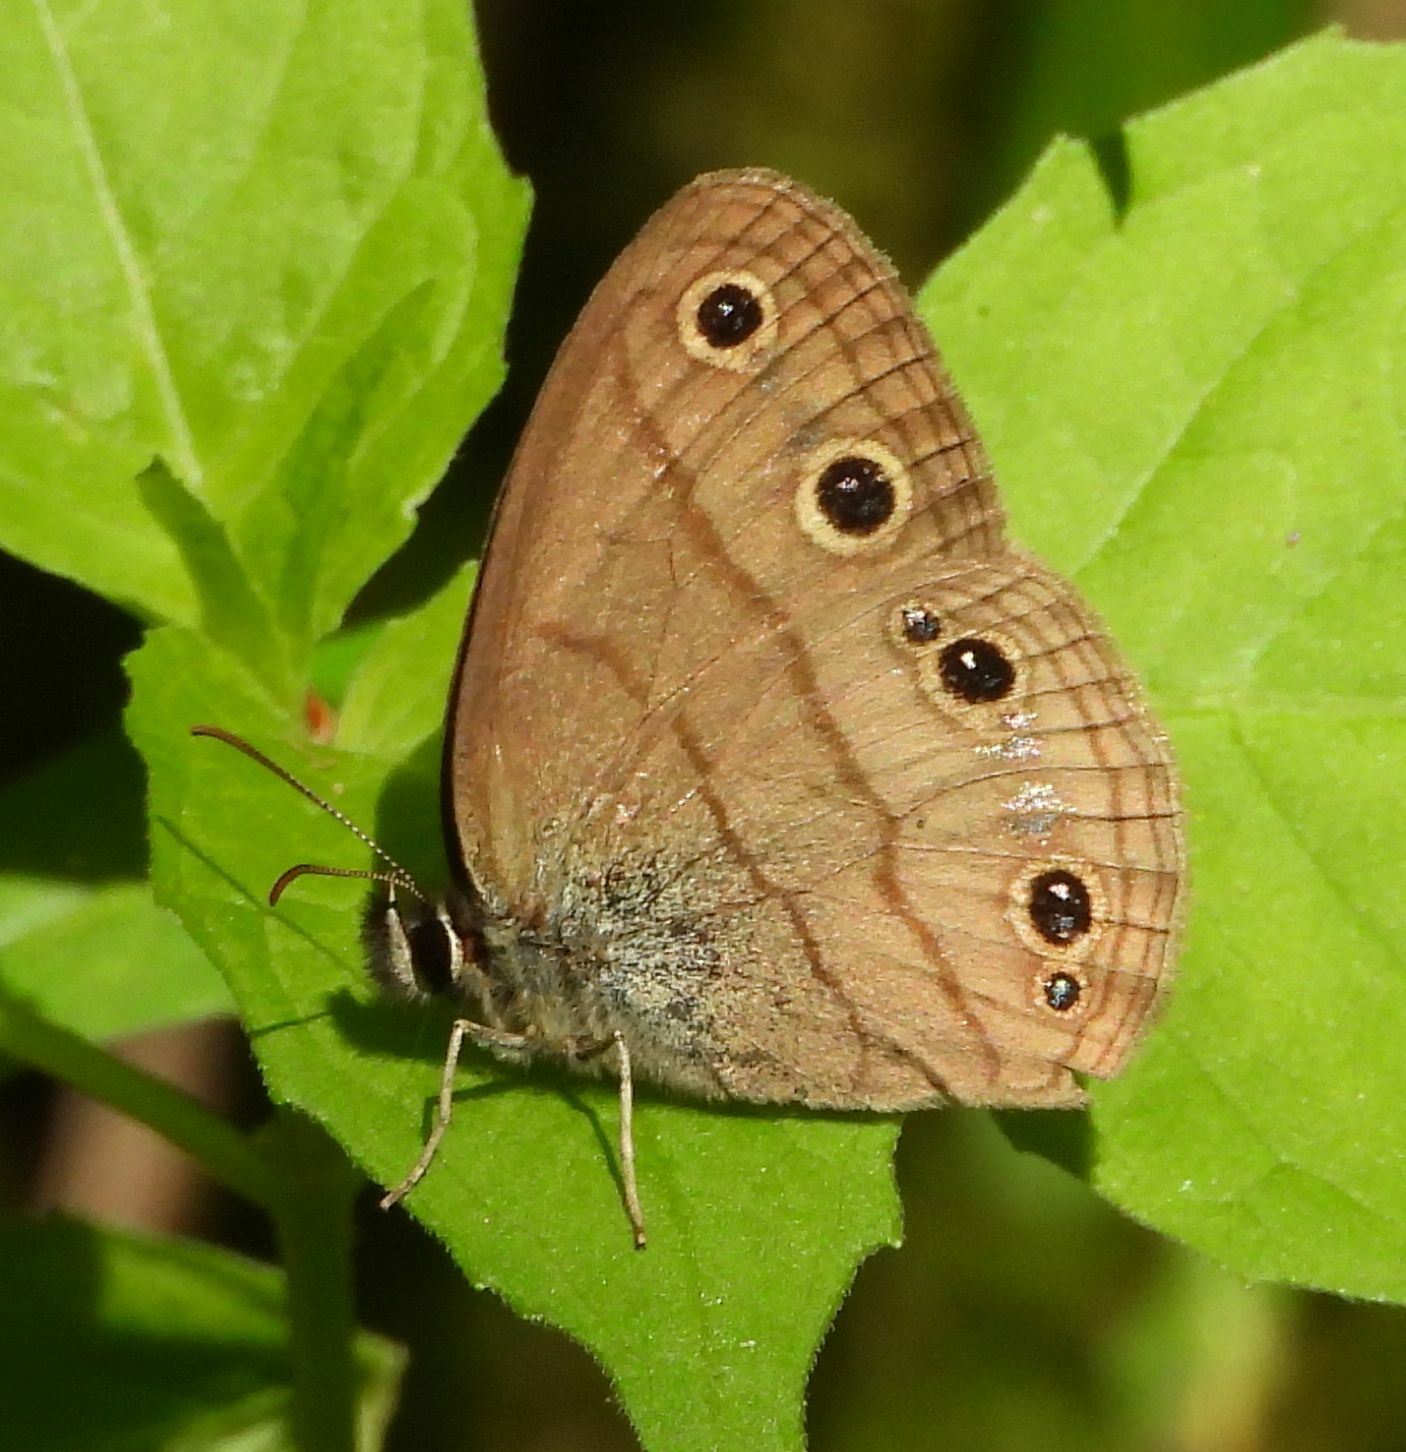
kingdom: Animalia
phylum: Arthropoda
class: Insecta
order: Lepidoptera
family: Nymphalidae
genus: Euptychia
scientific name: Euptychia cymela
